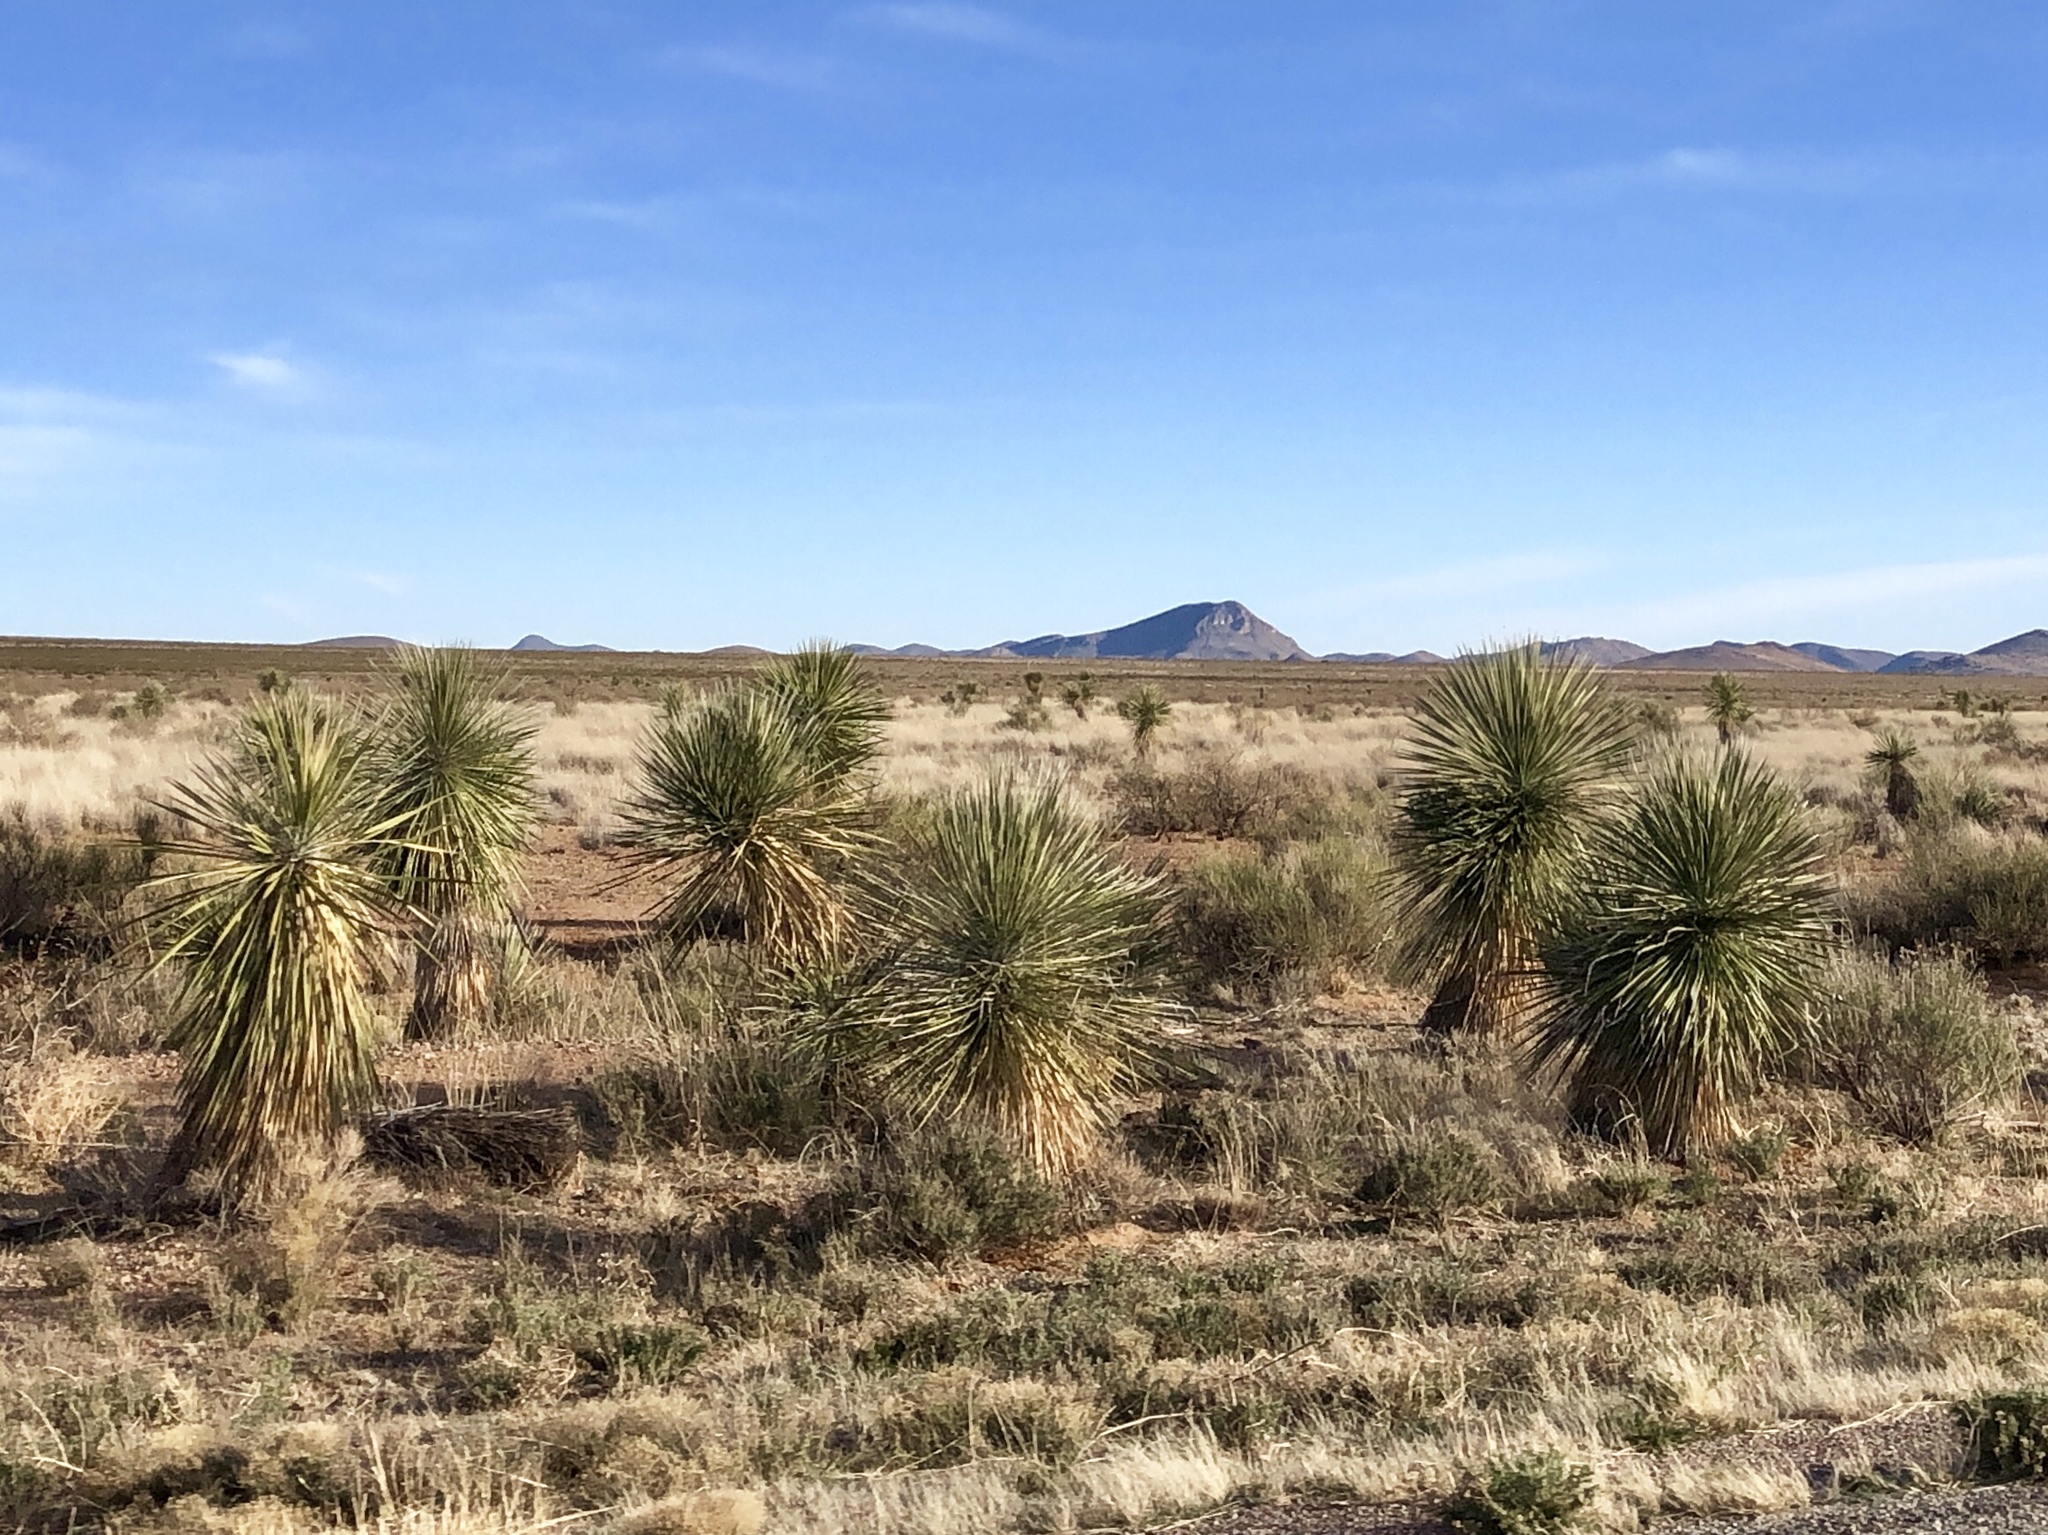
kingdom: Plantae
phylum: Tracheophyta
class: Liliopsida
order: Asparagales
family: Asparagaceae
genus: Yucca
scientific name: Yucca elata
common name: Palmella
